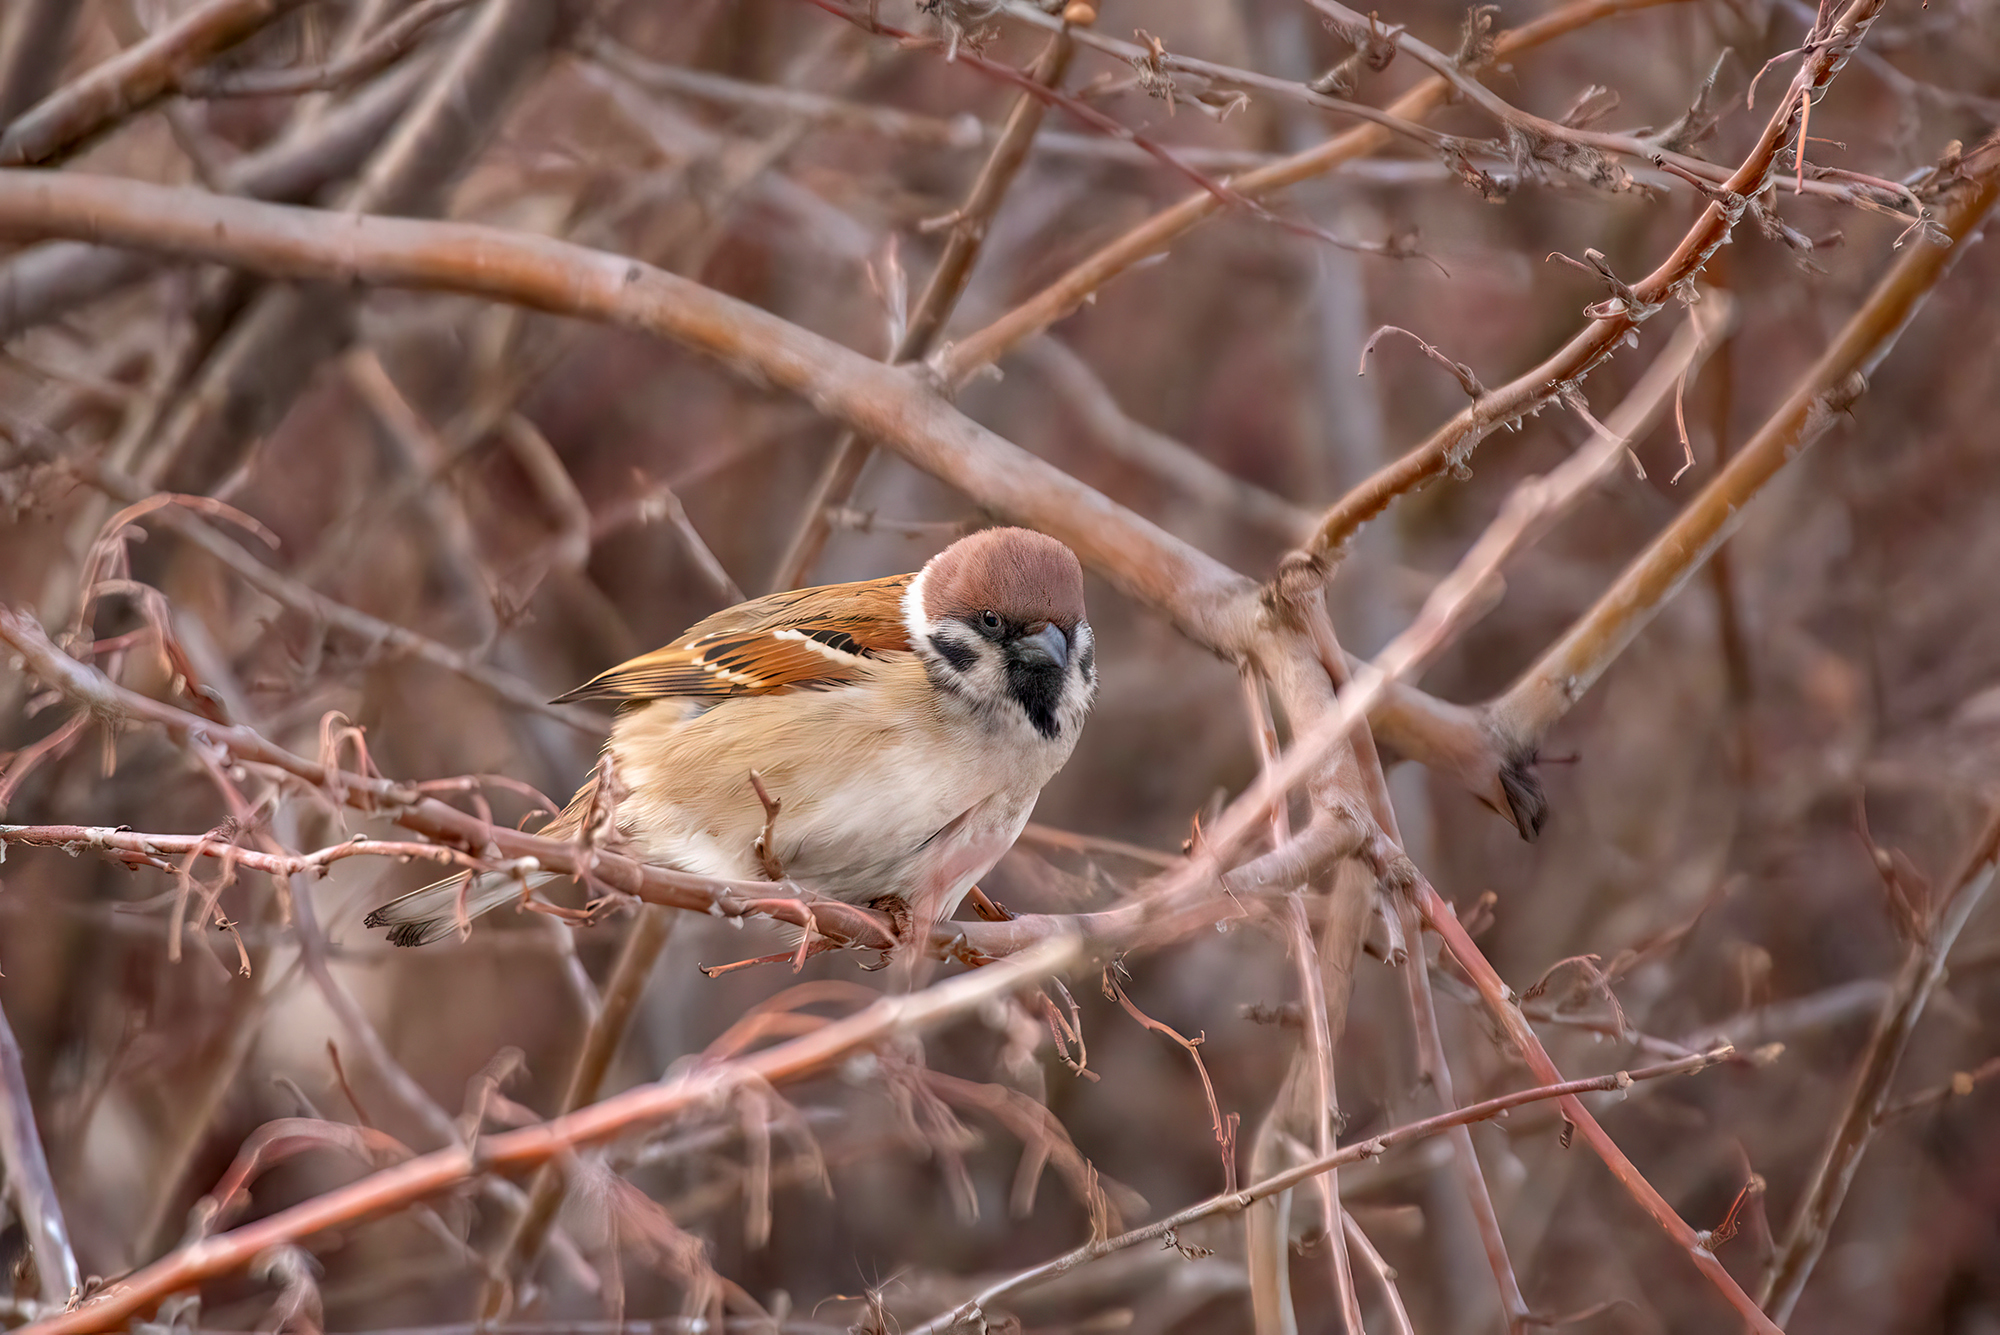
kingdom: Animalia
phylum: Chordata
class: Aves
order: Passeriformes
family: Passeridae
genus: Passer
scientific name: Passer montanus
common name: Eurasian tree sparrow
